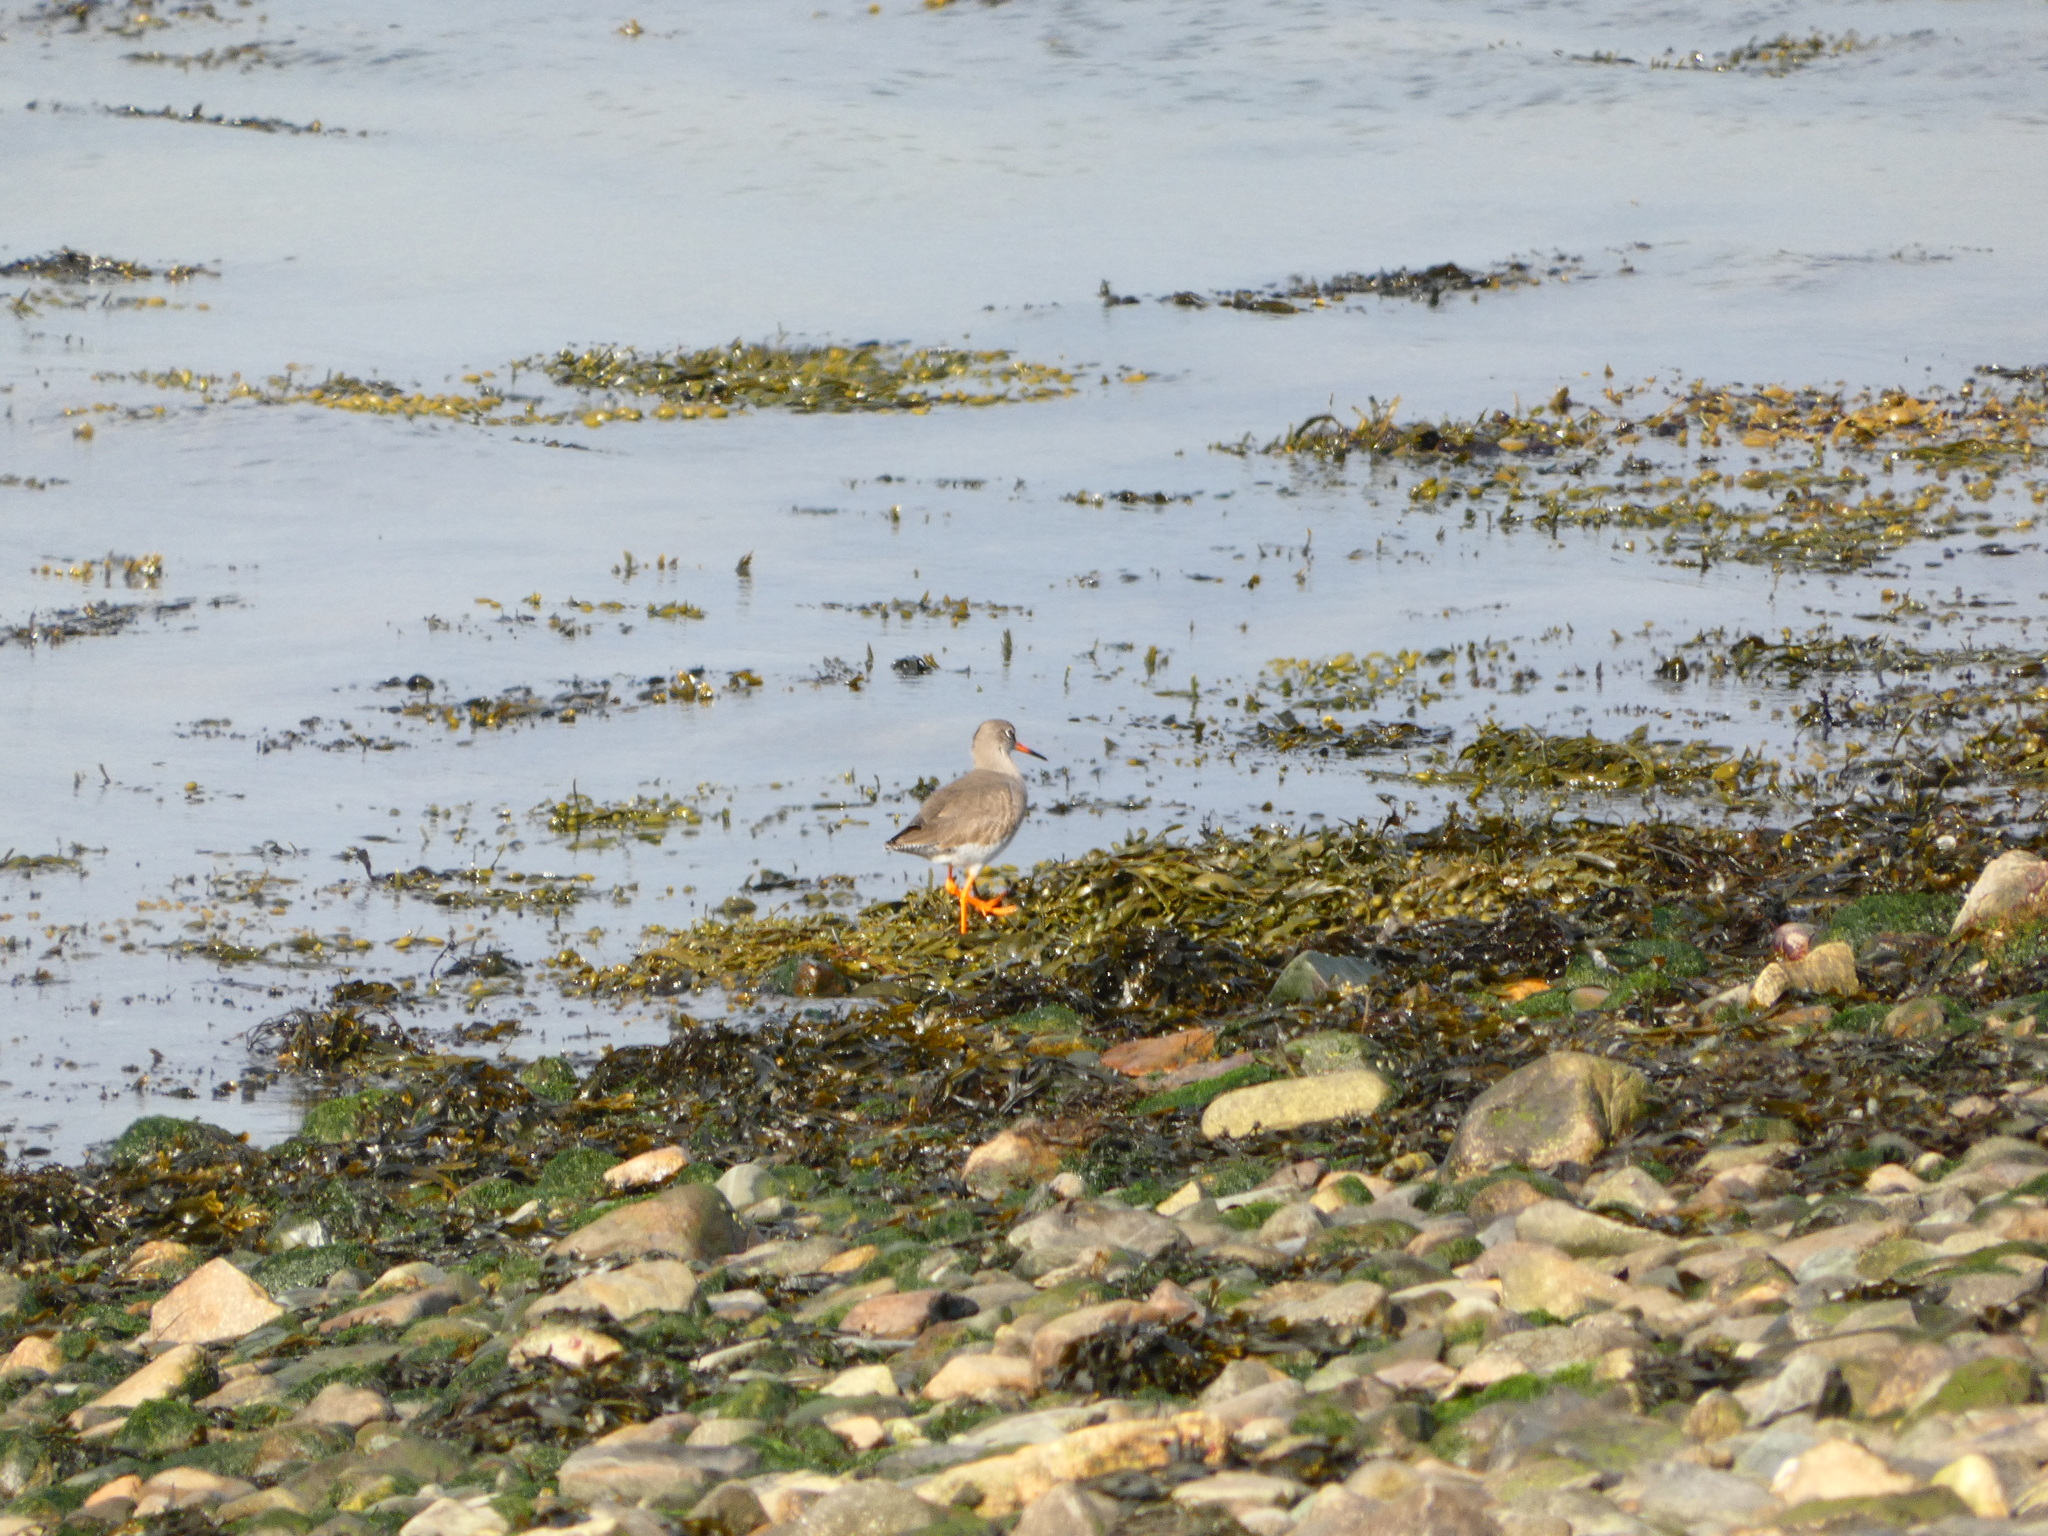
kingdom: Animalia
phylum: Chordata
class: Aves
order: Charadriiformes
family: Scolopacidae
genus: Tringa
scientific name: Tringa totanus
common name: Common redshank
